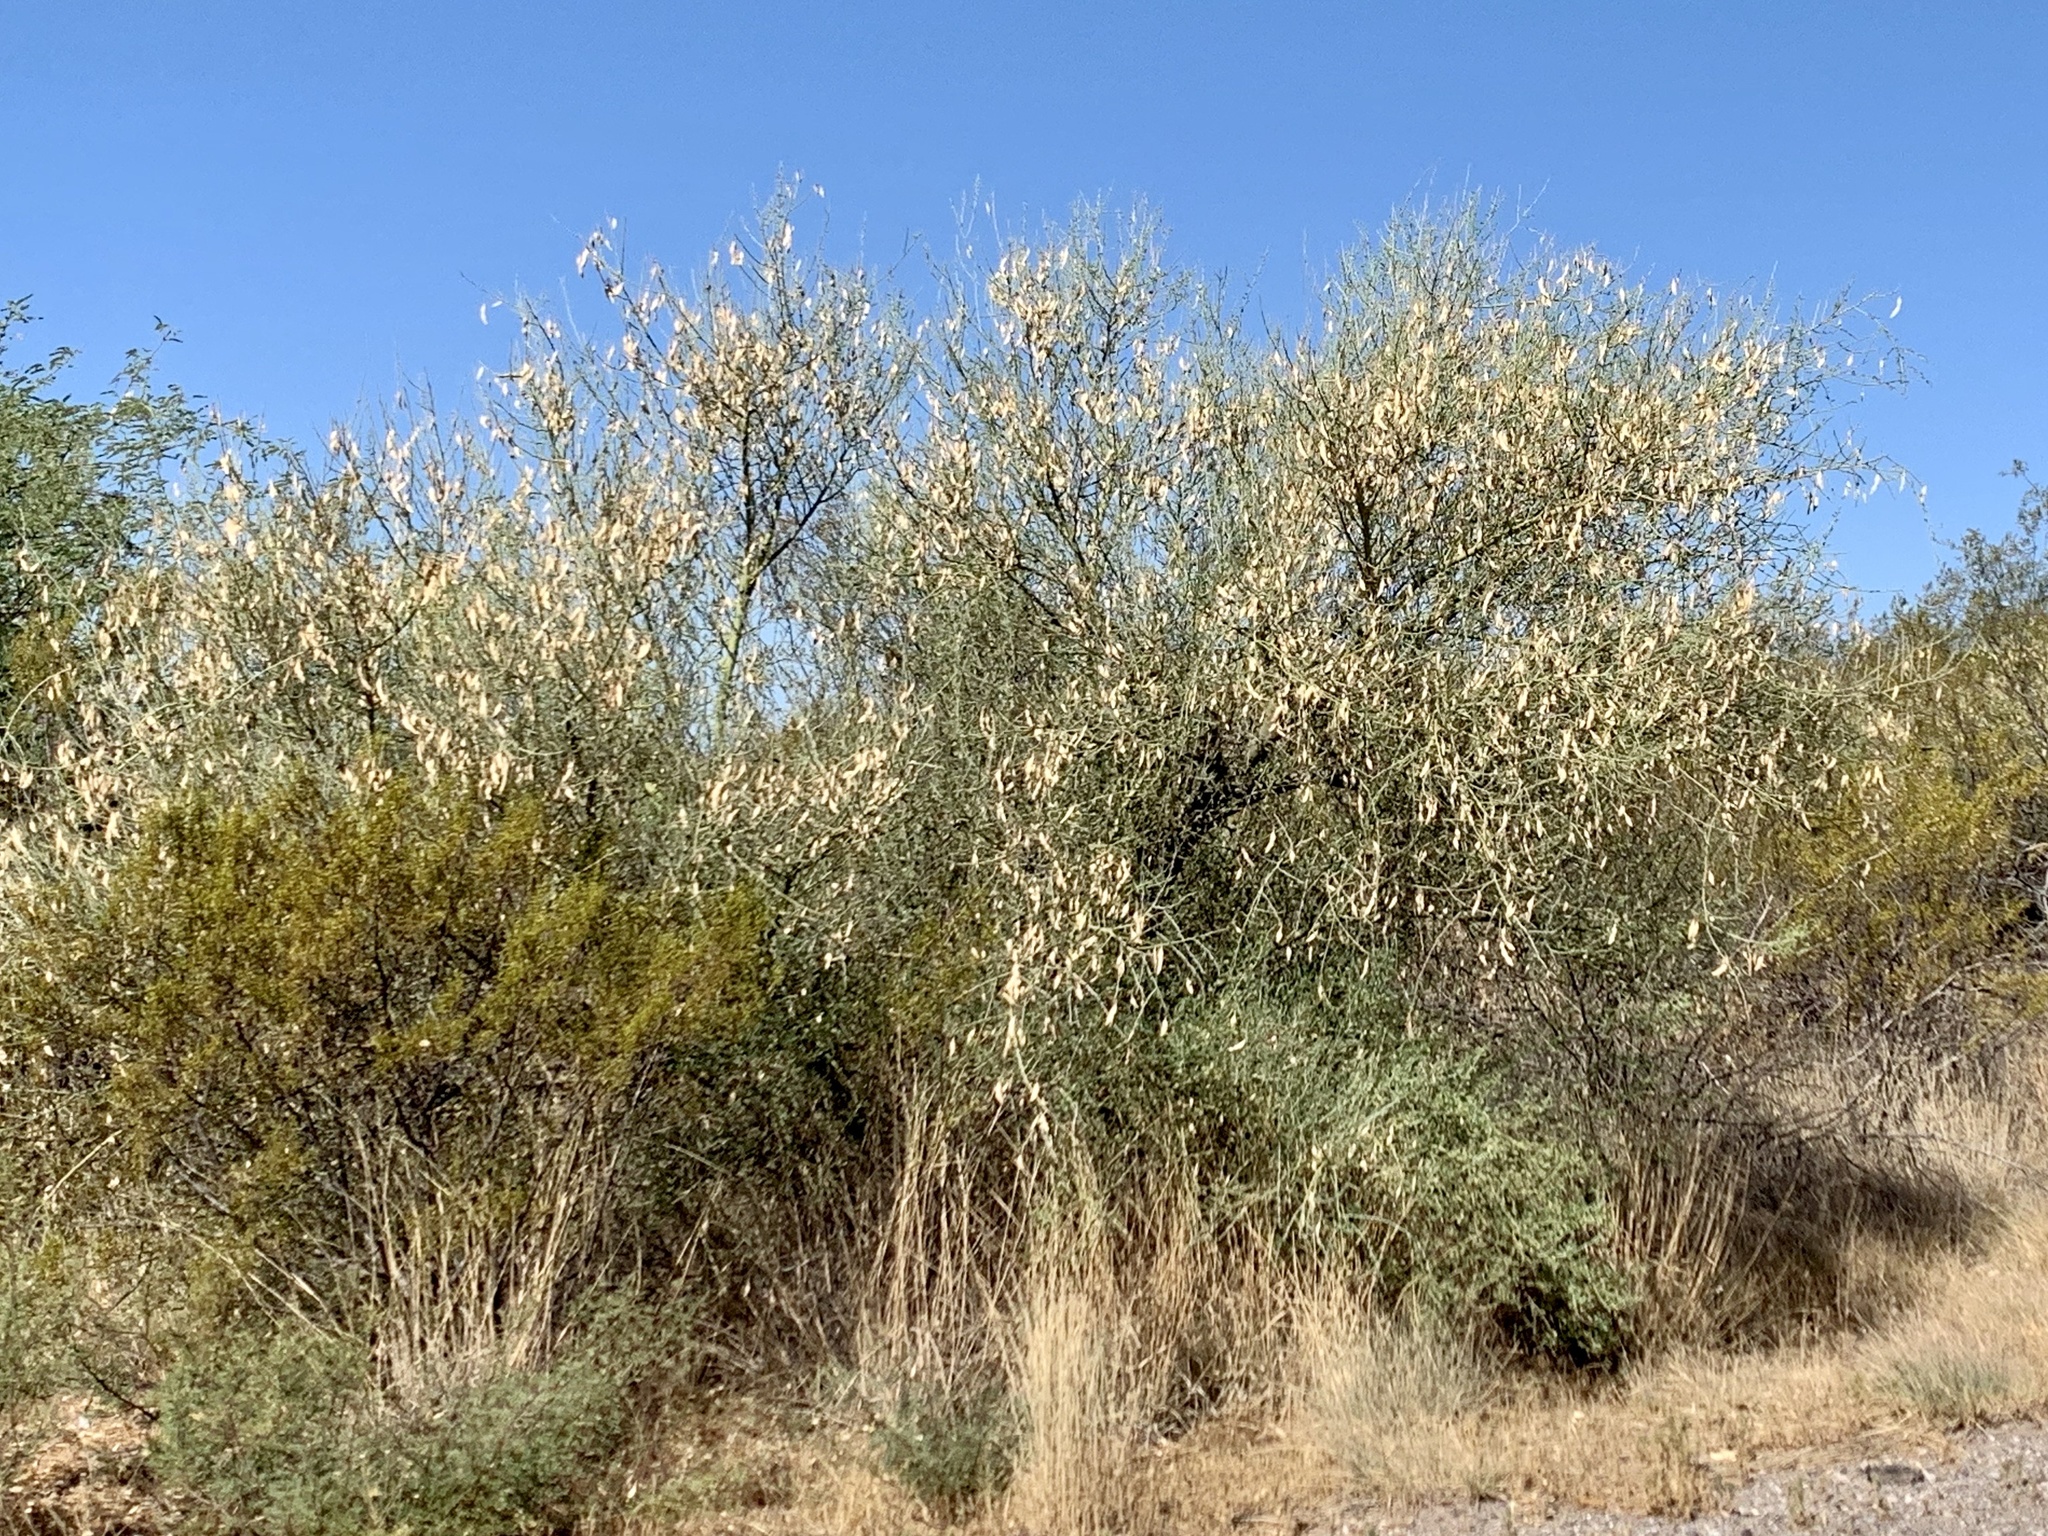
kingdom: Plantae
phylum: Tracheophyta
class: Magnoliopsida
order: Fabales
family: Fabaceae
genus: Parkinsonia
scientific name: Parkinsonia florida
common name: Blue paloverde
